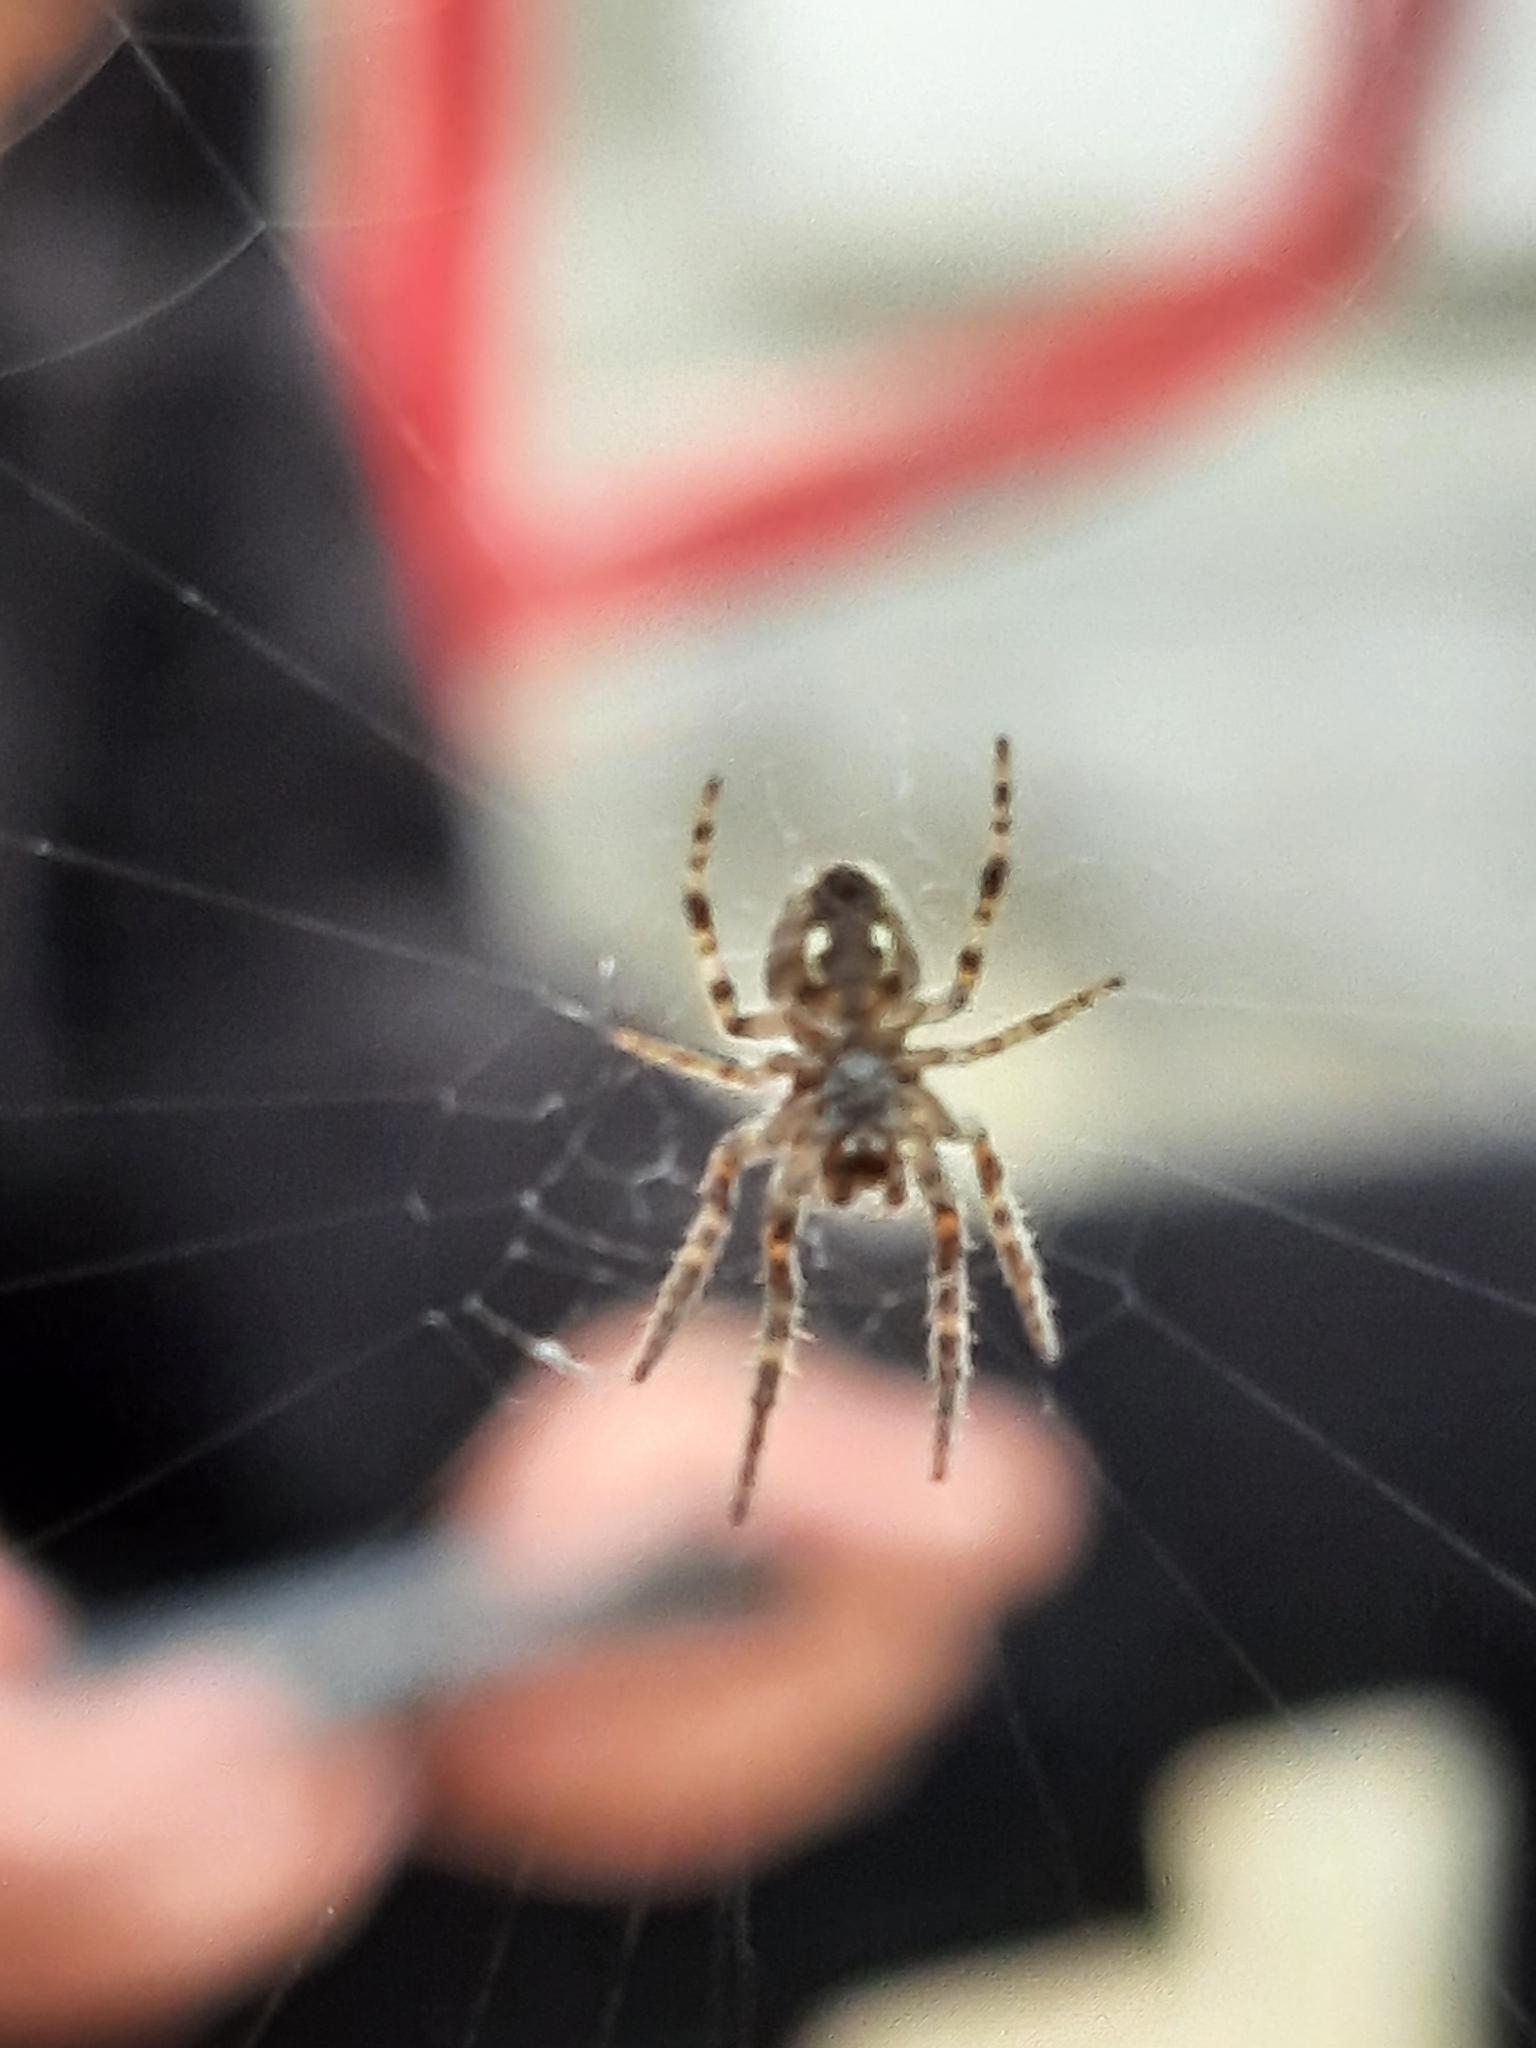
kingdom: Animalia
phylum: Arthropoda
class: Arachnida
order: Araneae
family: Araneidae
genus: Larinioides
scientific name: Larinioides sclopetarius
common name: Bridge orbweaver
